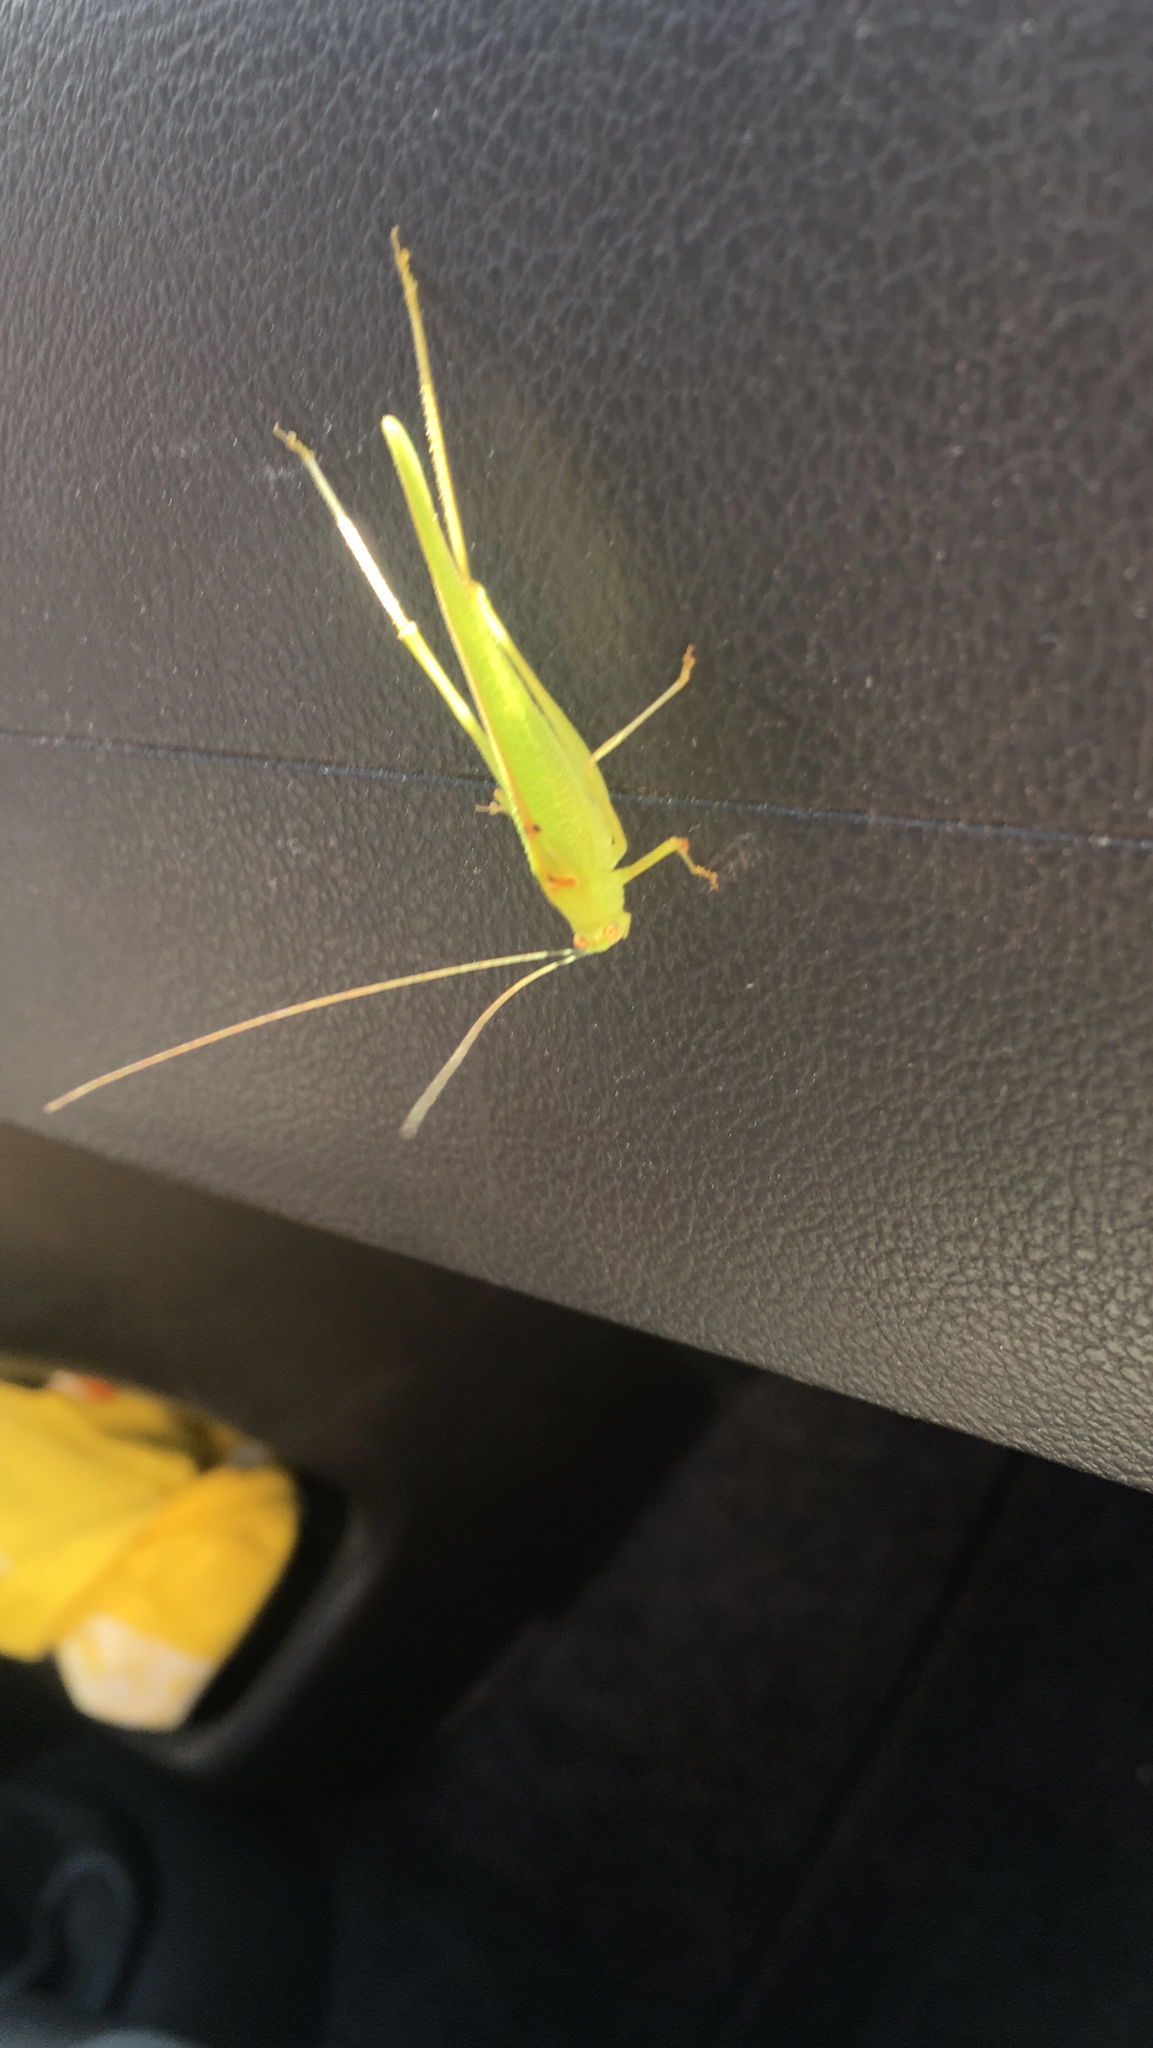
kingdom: Animalia
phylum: Arthropoda
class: Insecta
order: Orthoptera
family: Tettigoniidae
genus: Phaneroptera
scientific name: Phaneroptera nana
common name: Southern sickle bush-cricket
